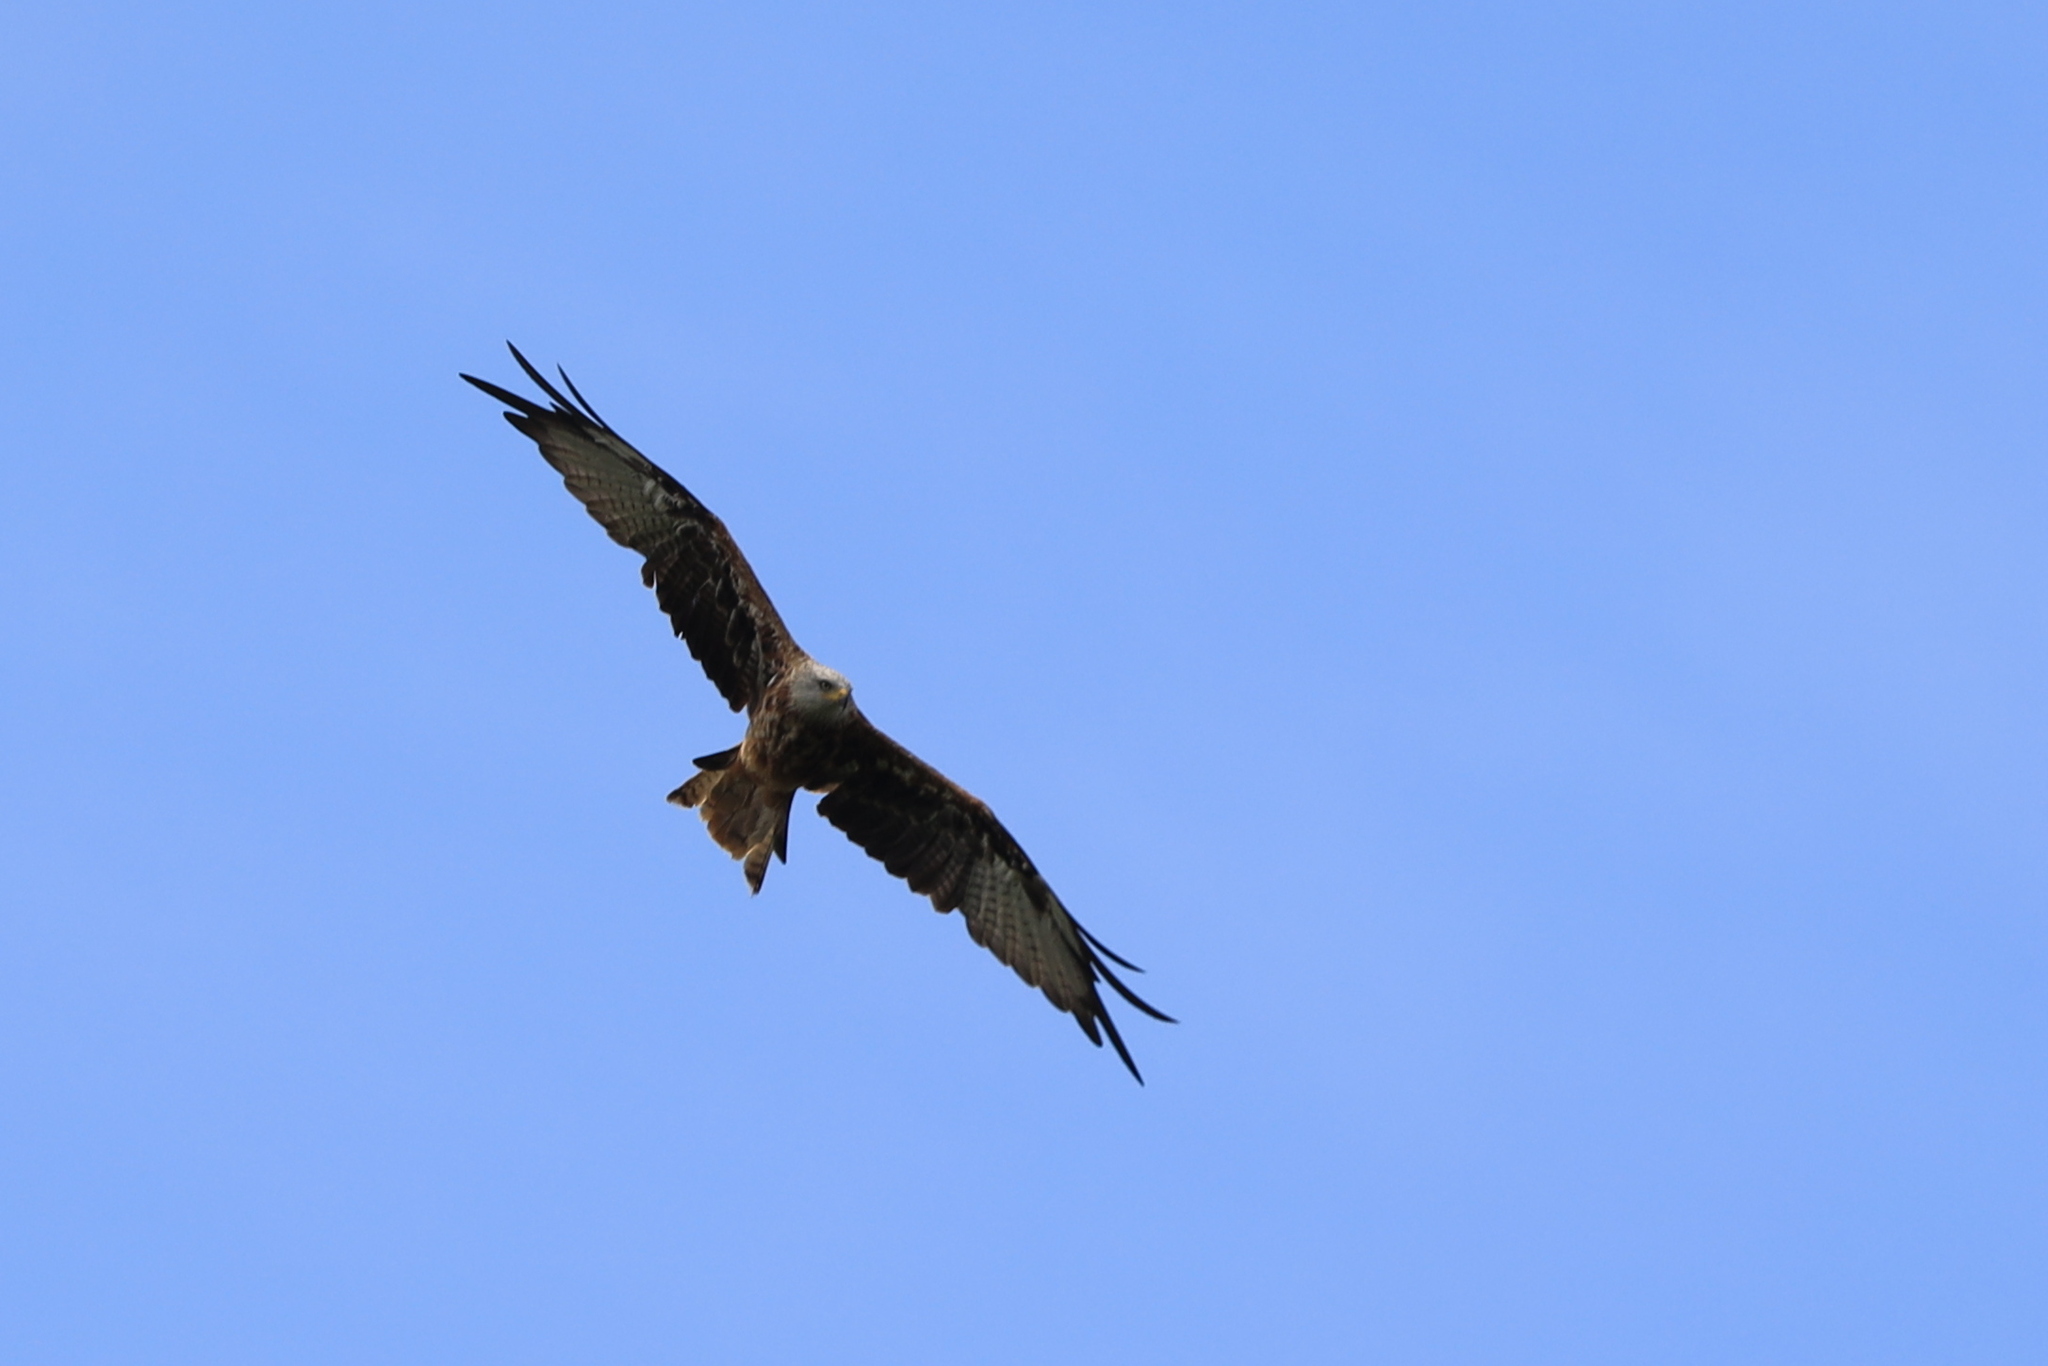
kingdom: Animalia
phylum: Chordata
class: Aves
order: Accipitriformes
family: Accipitridae
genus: Milvus
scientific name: Milvus milvus
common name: Red kite
